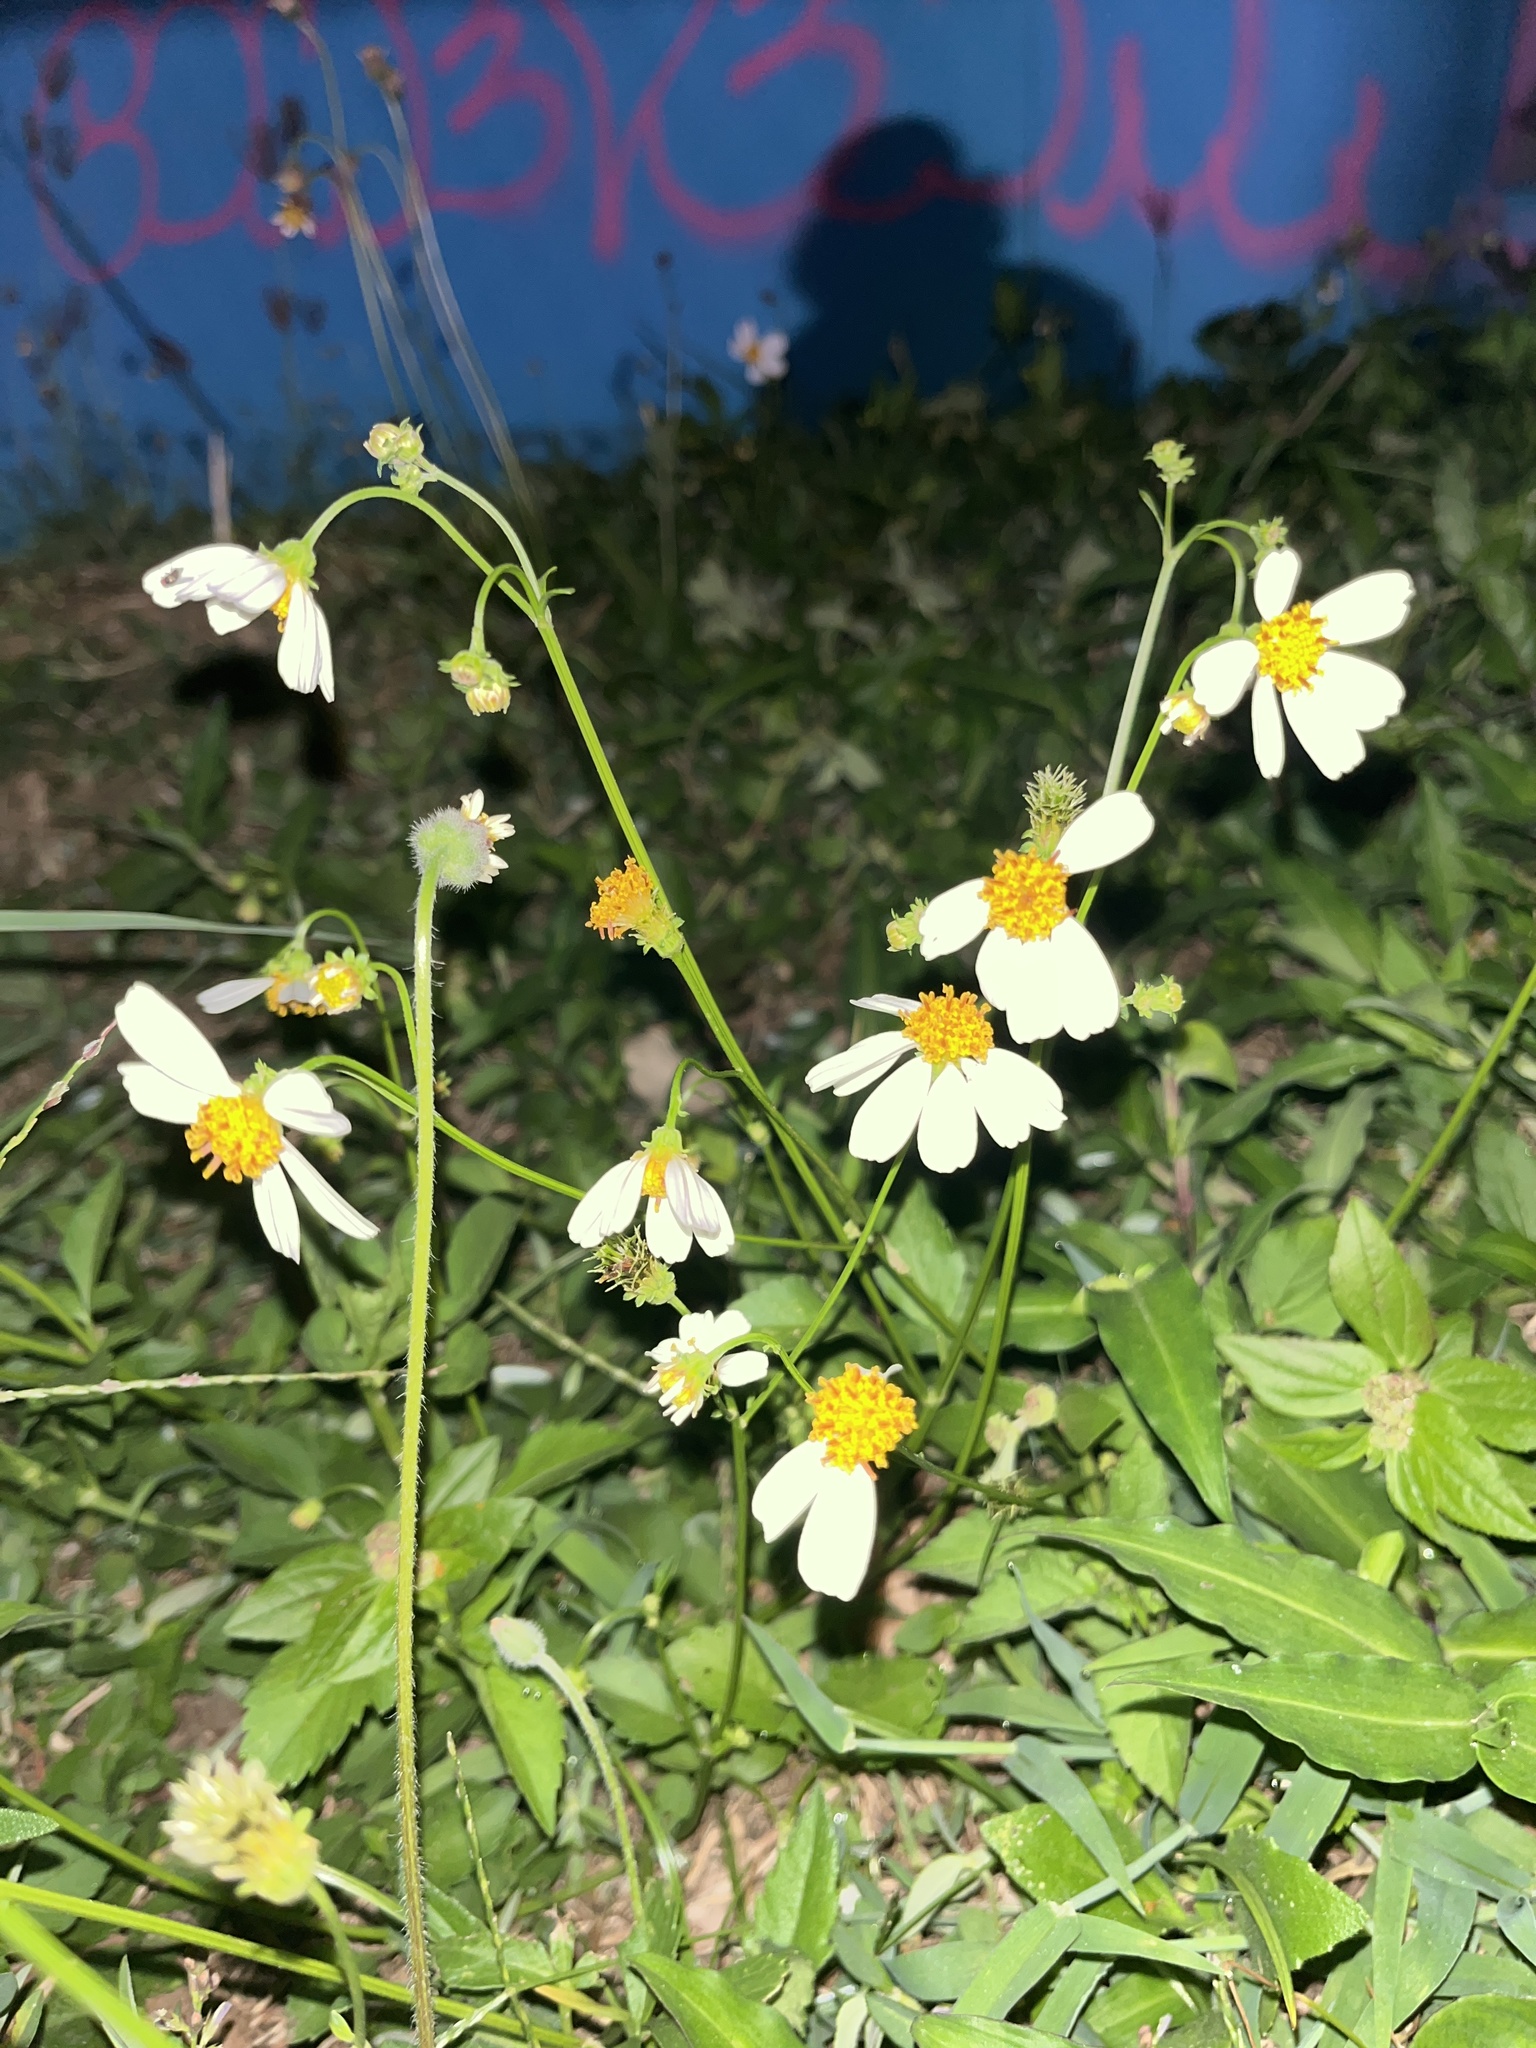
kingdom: Plantae
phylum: Tracheophyta
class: Magnoliopsida
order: Asterales
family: Asteraceae
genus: Bidens
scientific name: Bidens alba
